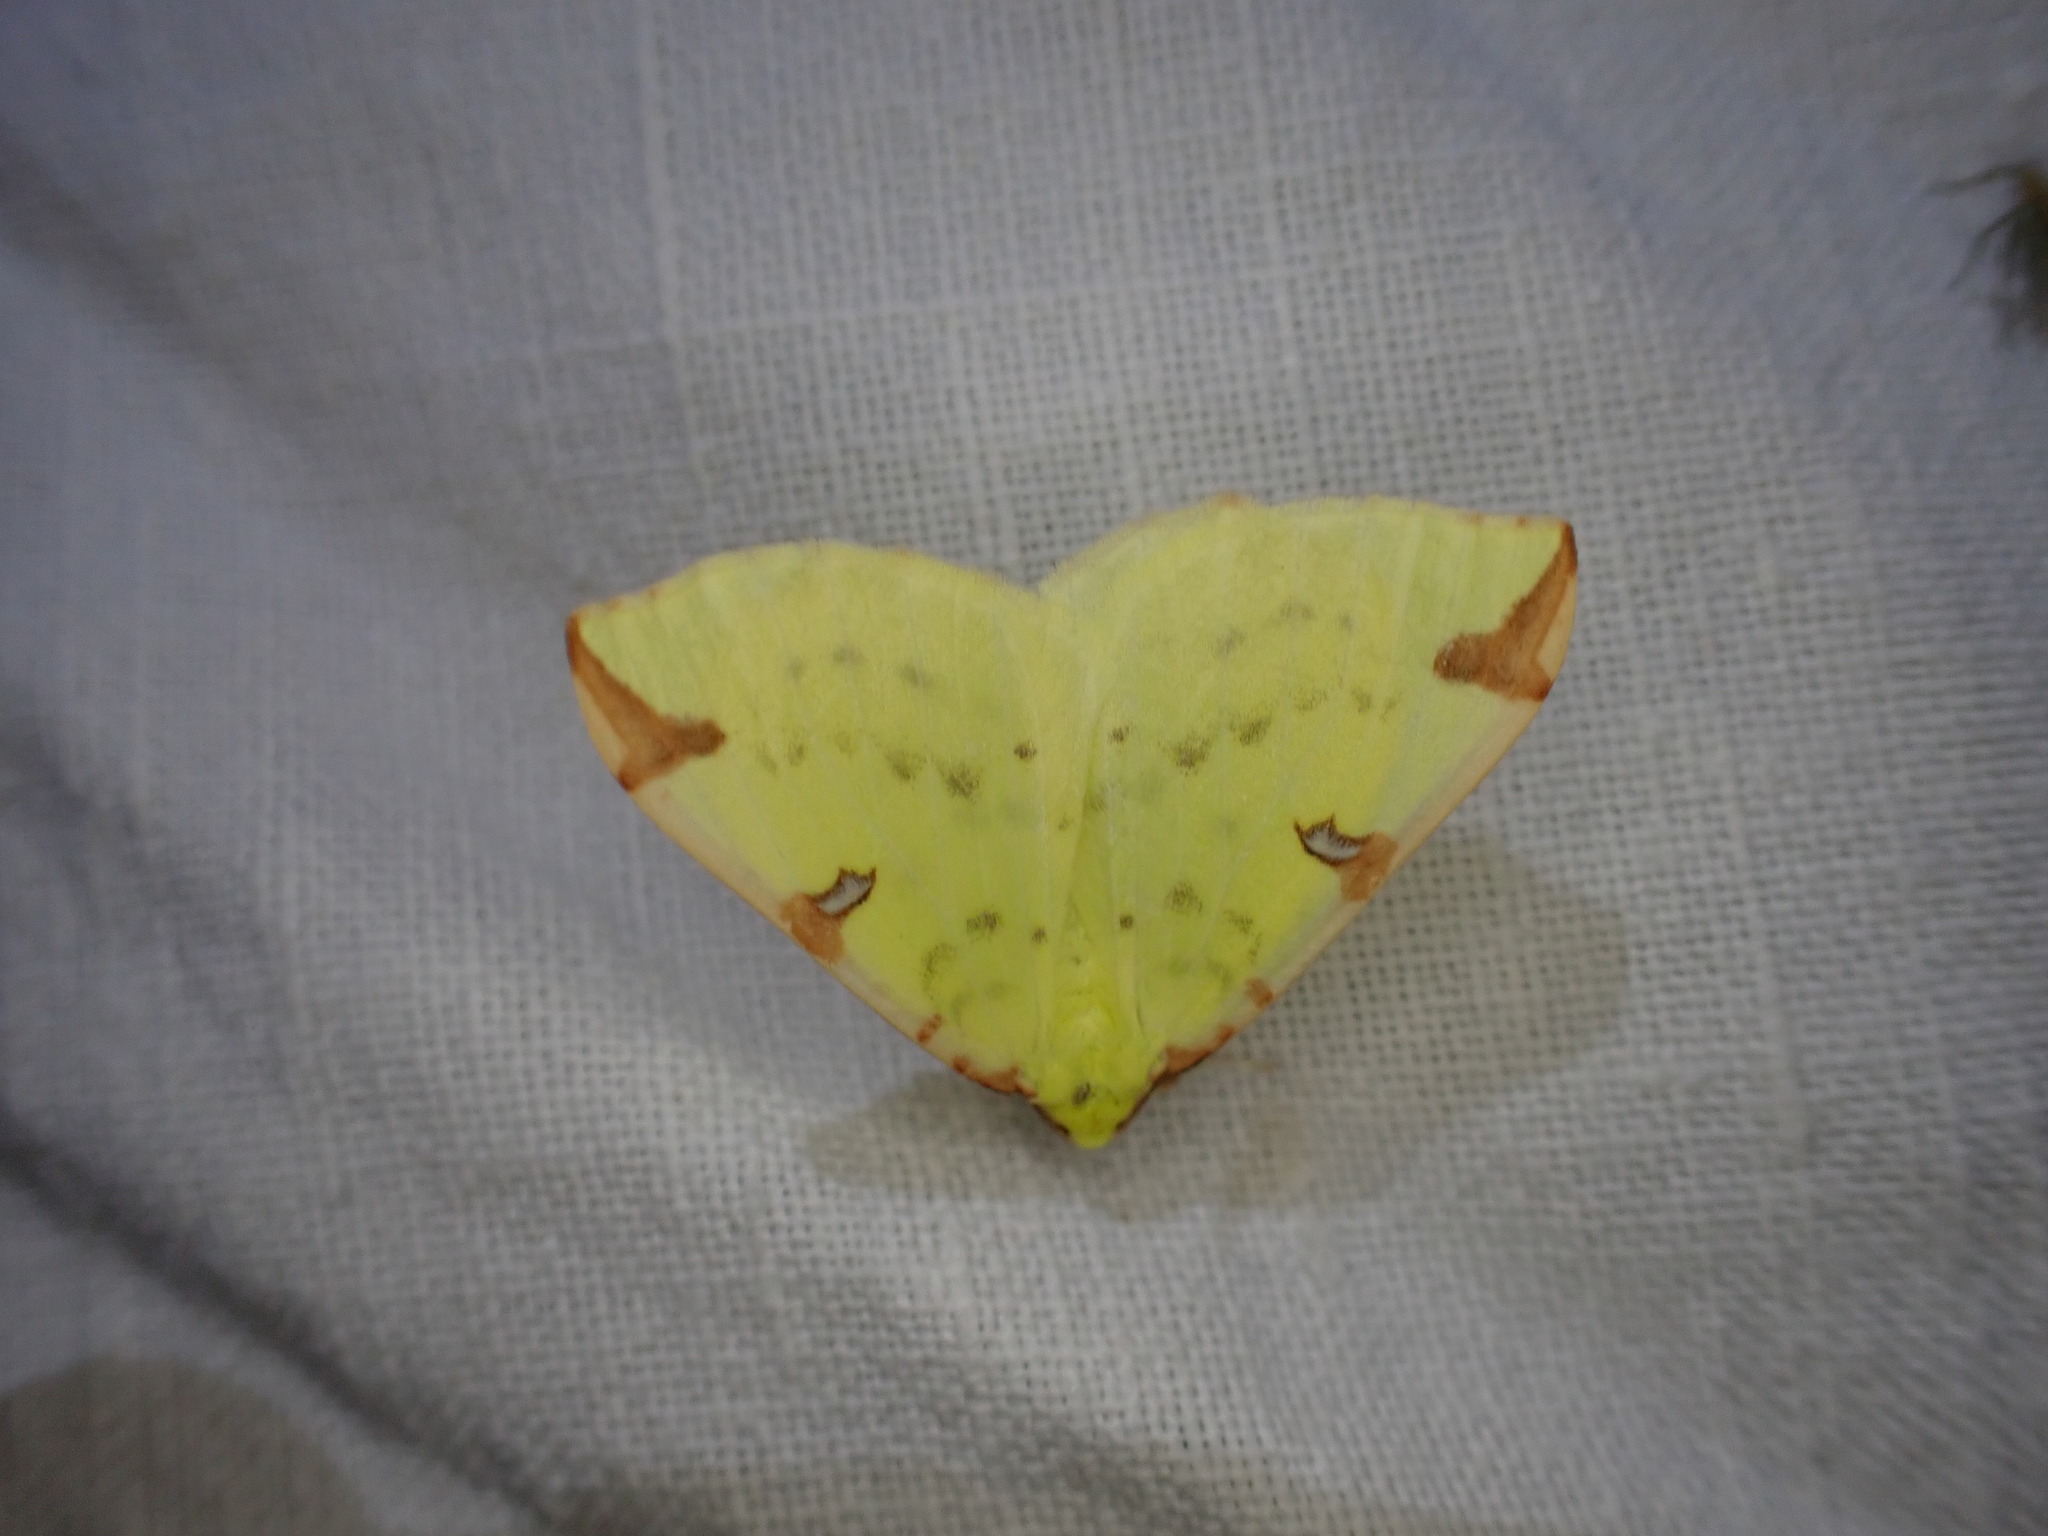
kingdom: Animalia
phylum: Arthropoda
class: Insecta
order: Lepidoptera
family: Geometridae
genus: Opisthograptis
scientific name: Opisthograptis luteolata
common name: Brimstone moth
